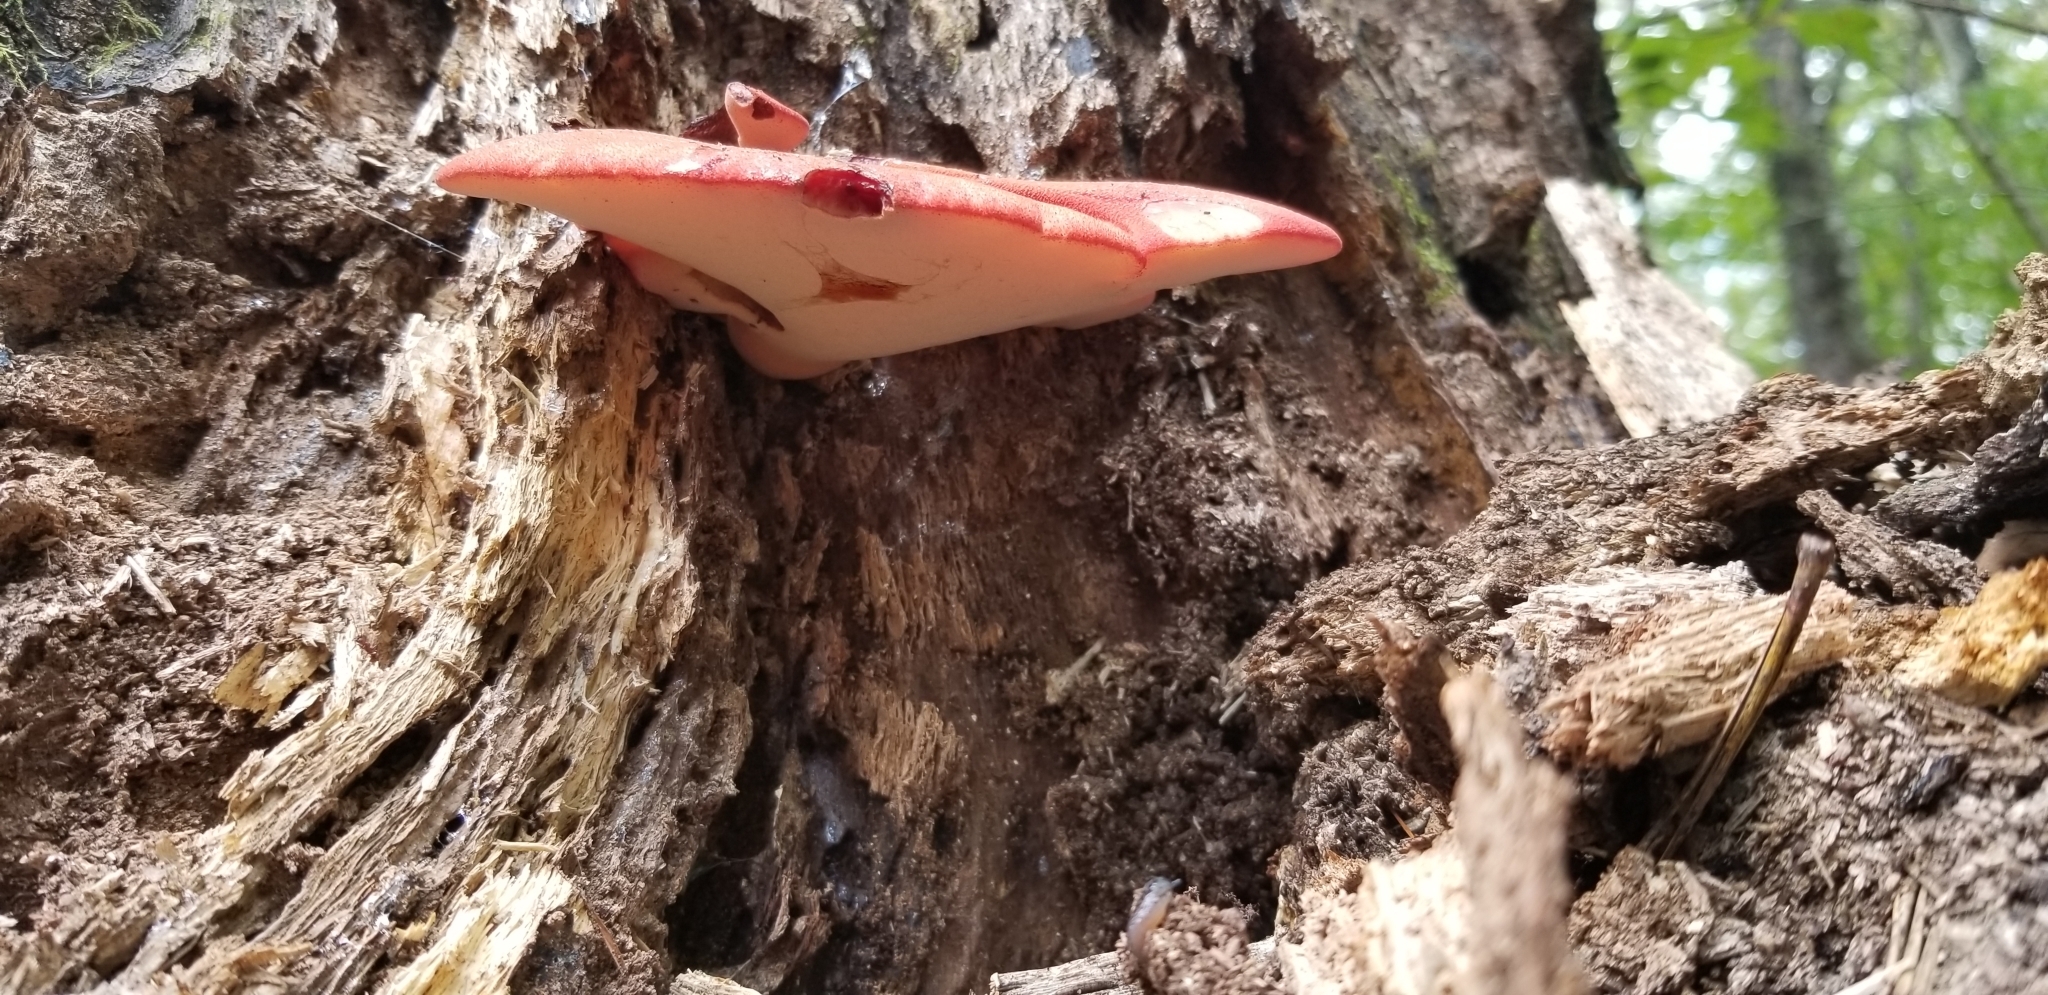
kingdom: Fungi
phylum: Basidiomycota
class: Agaricomycetes
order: Agaricales
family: Fistulinaceae
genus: Fistulina
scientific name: Fistulina hepatica
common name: Beef-steak fungus
